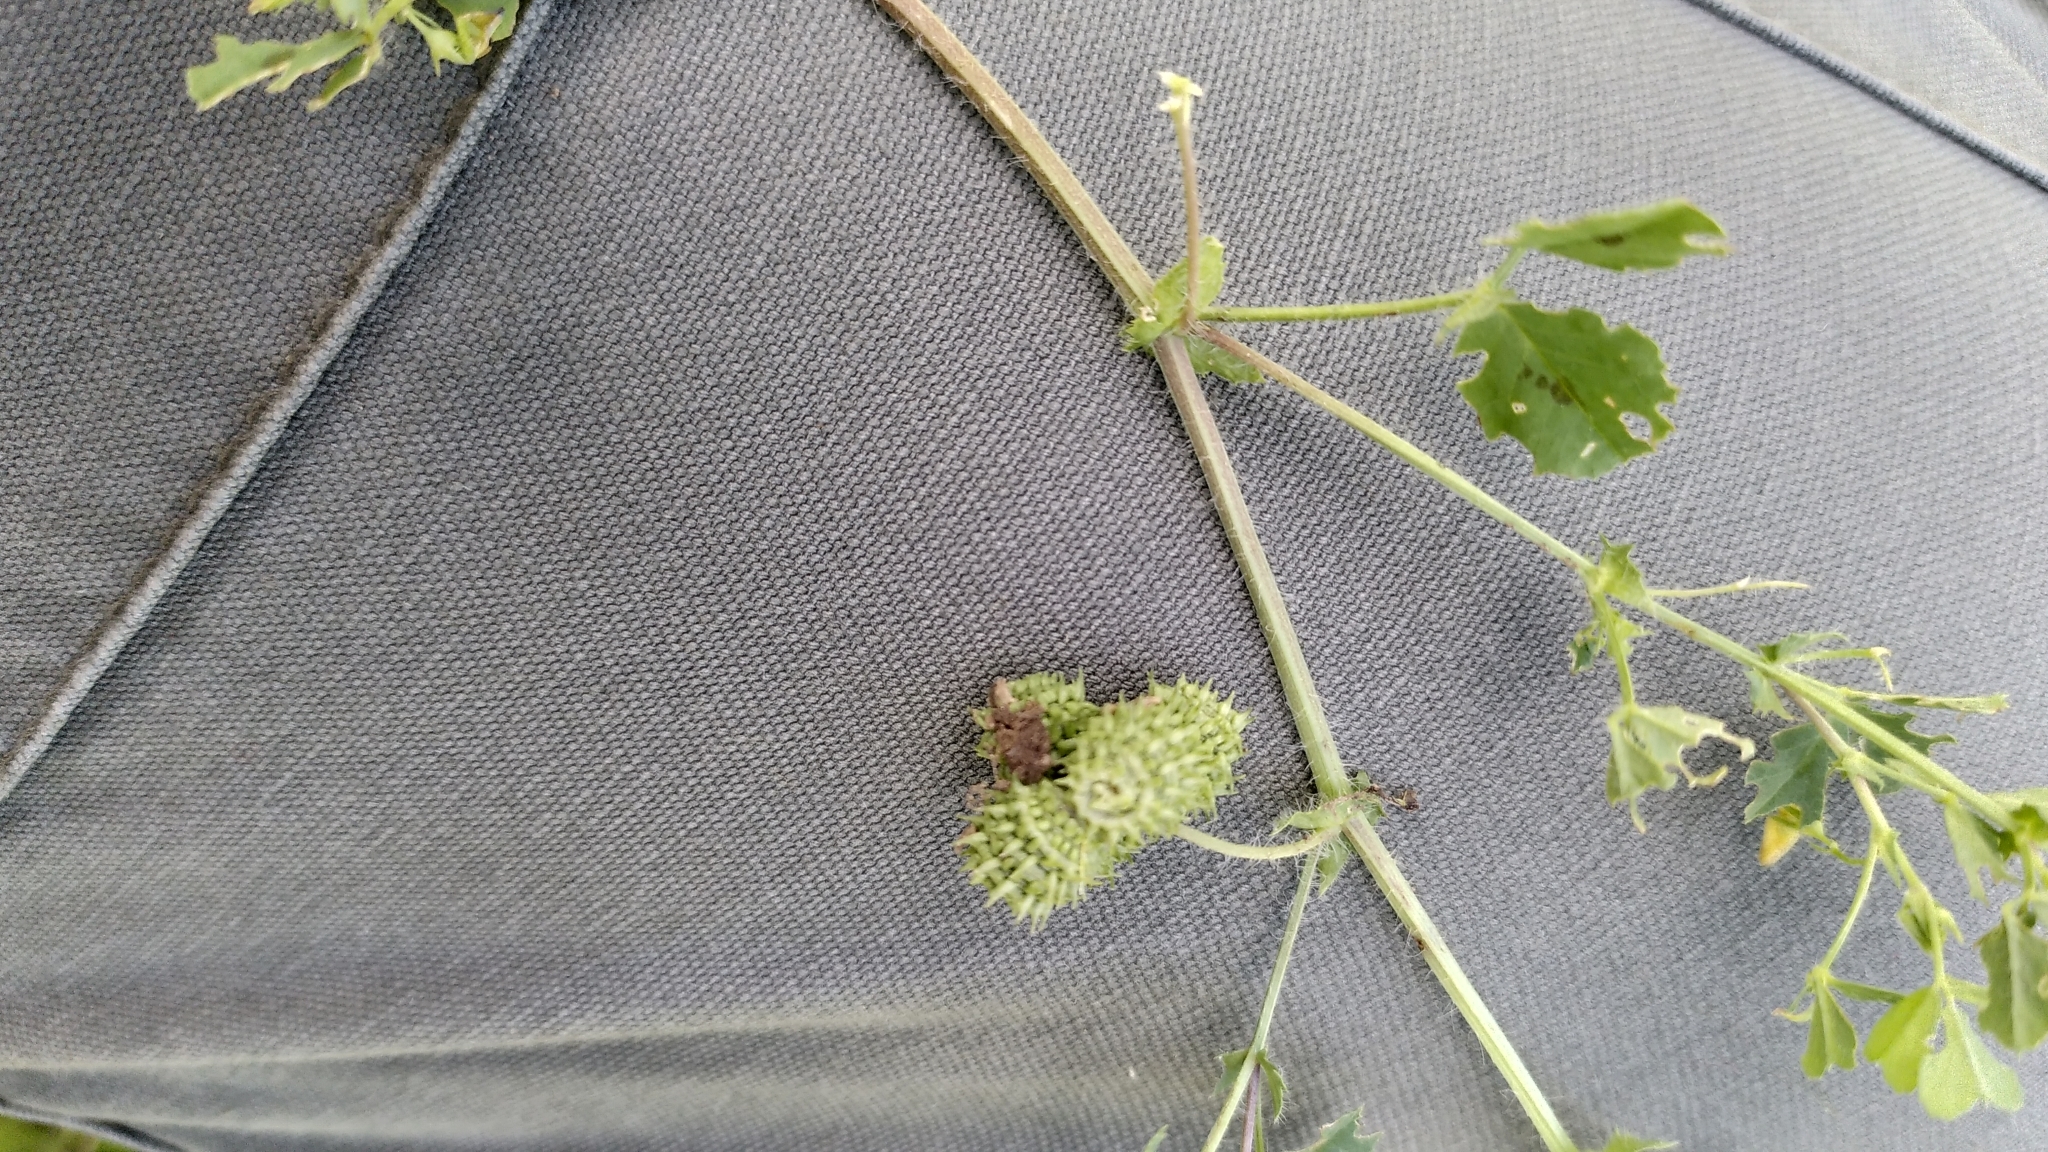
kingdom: Plantae
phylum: Tracheophyta
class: Magnoliopsida
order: Fabales
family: Fabaceae
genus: Medicago
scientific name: Medicago arabica
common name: Spotted medick
